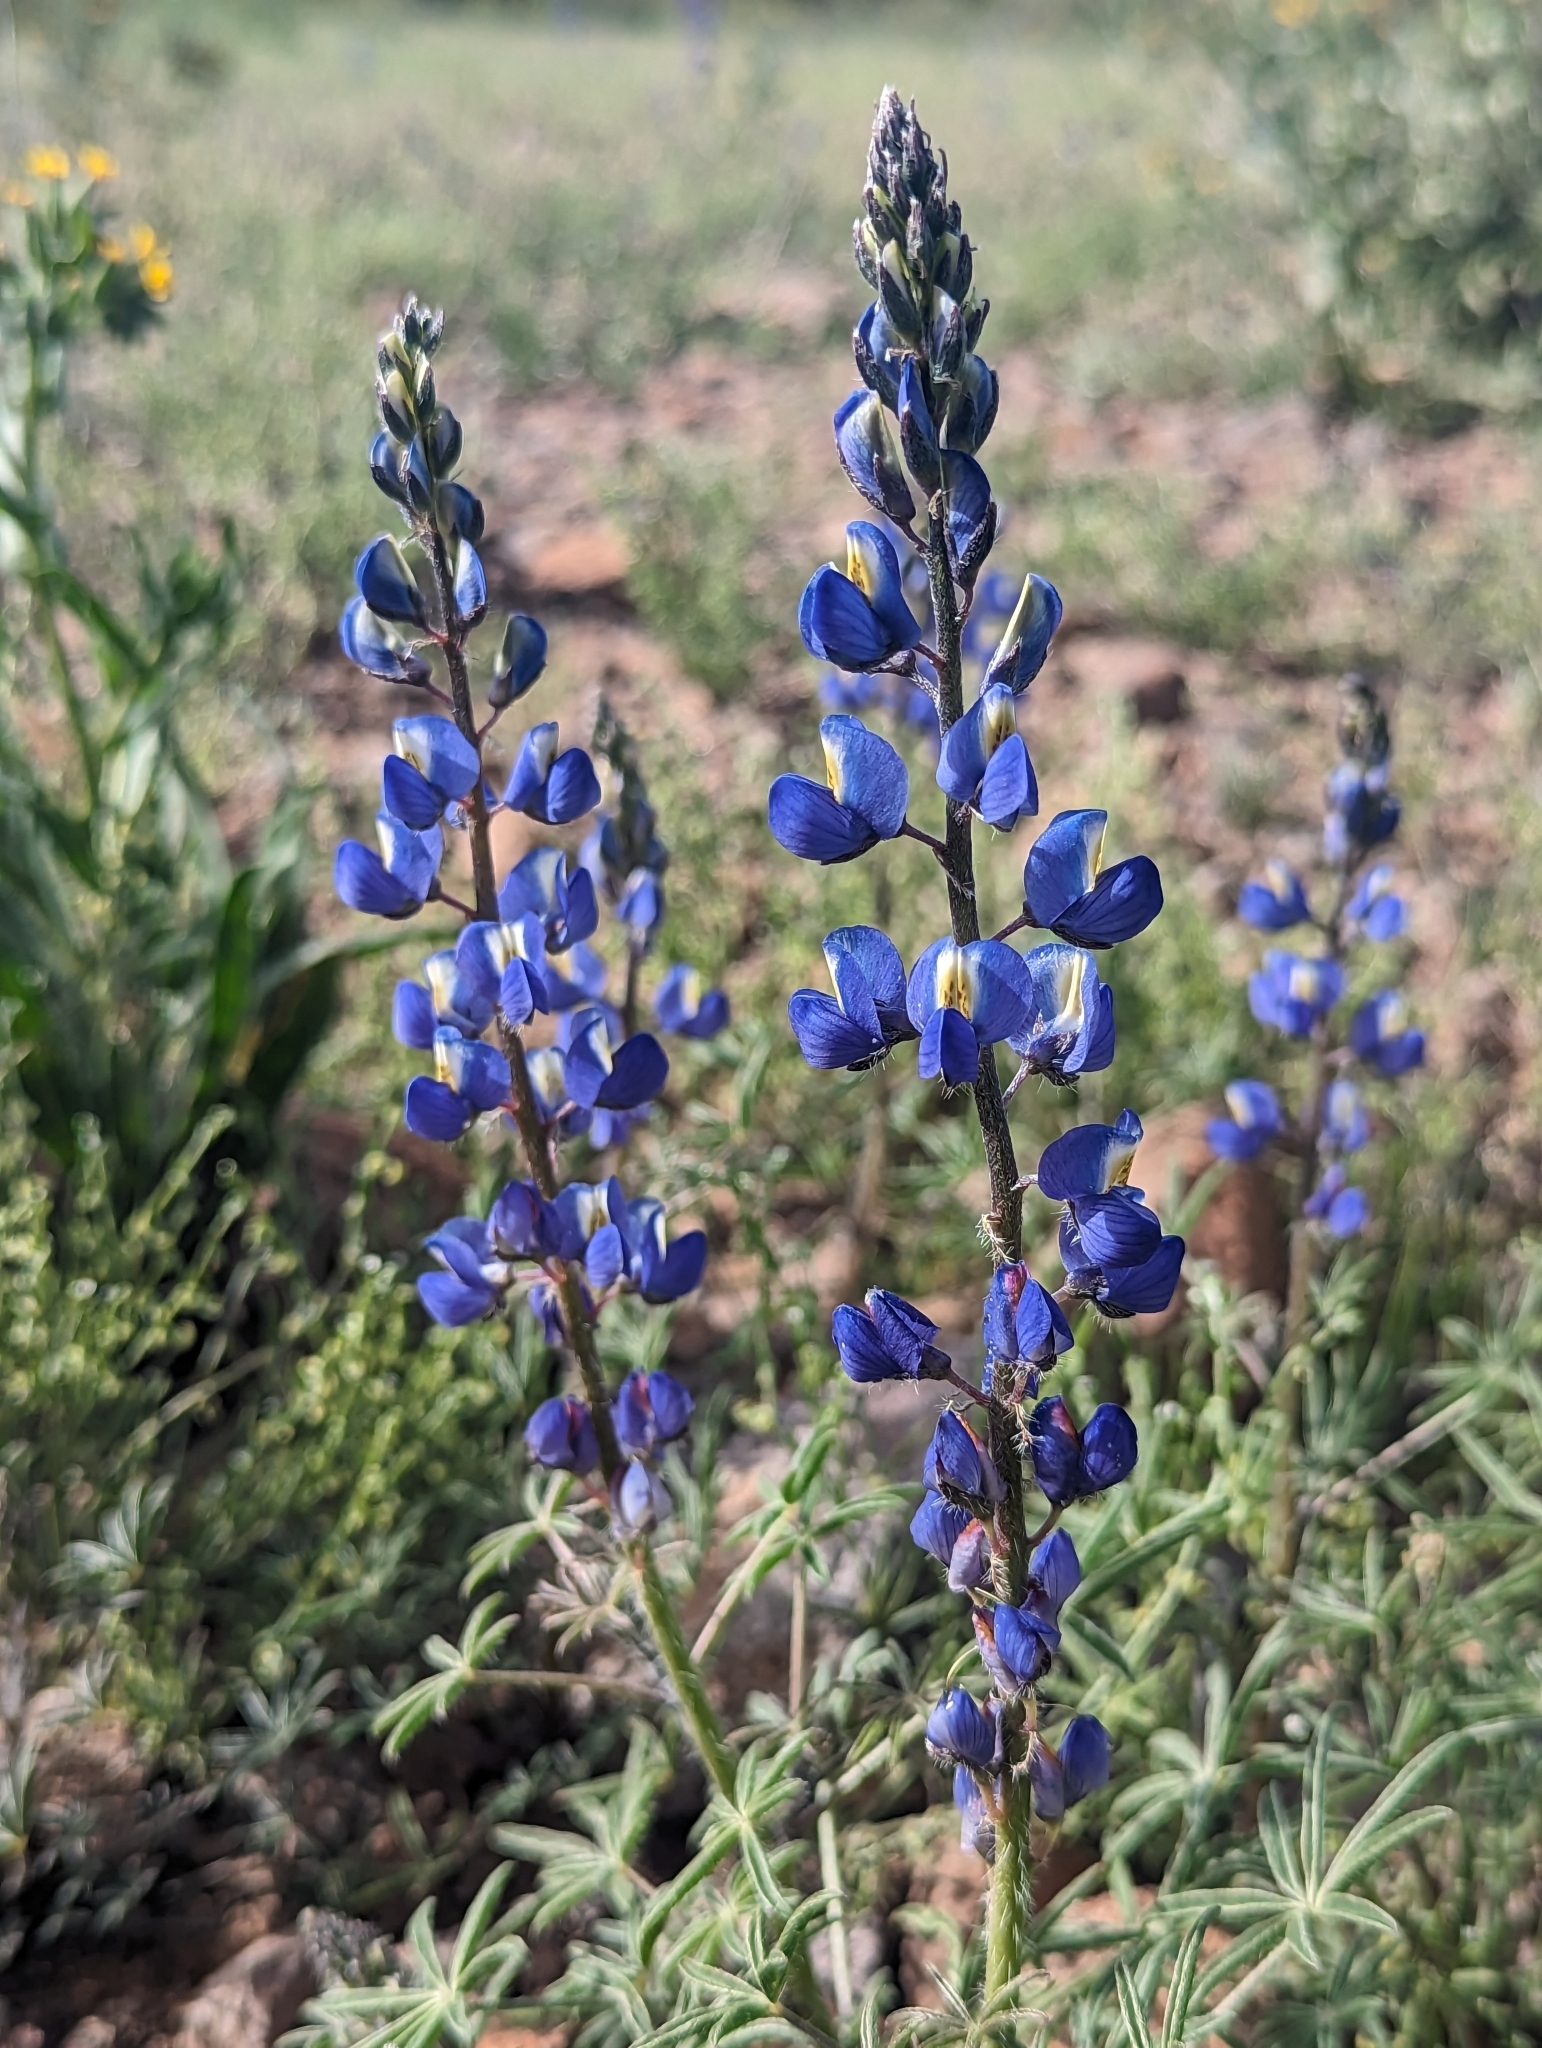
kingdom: Plantae
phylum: Tracheophyta
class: Magnoliopsida
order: Fabales
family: Fabaceae
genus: Lupinus
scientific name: Lupinus sparsiflorus
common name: Coulter's lupine
